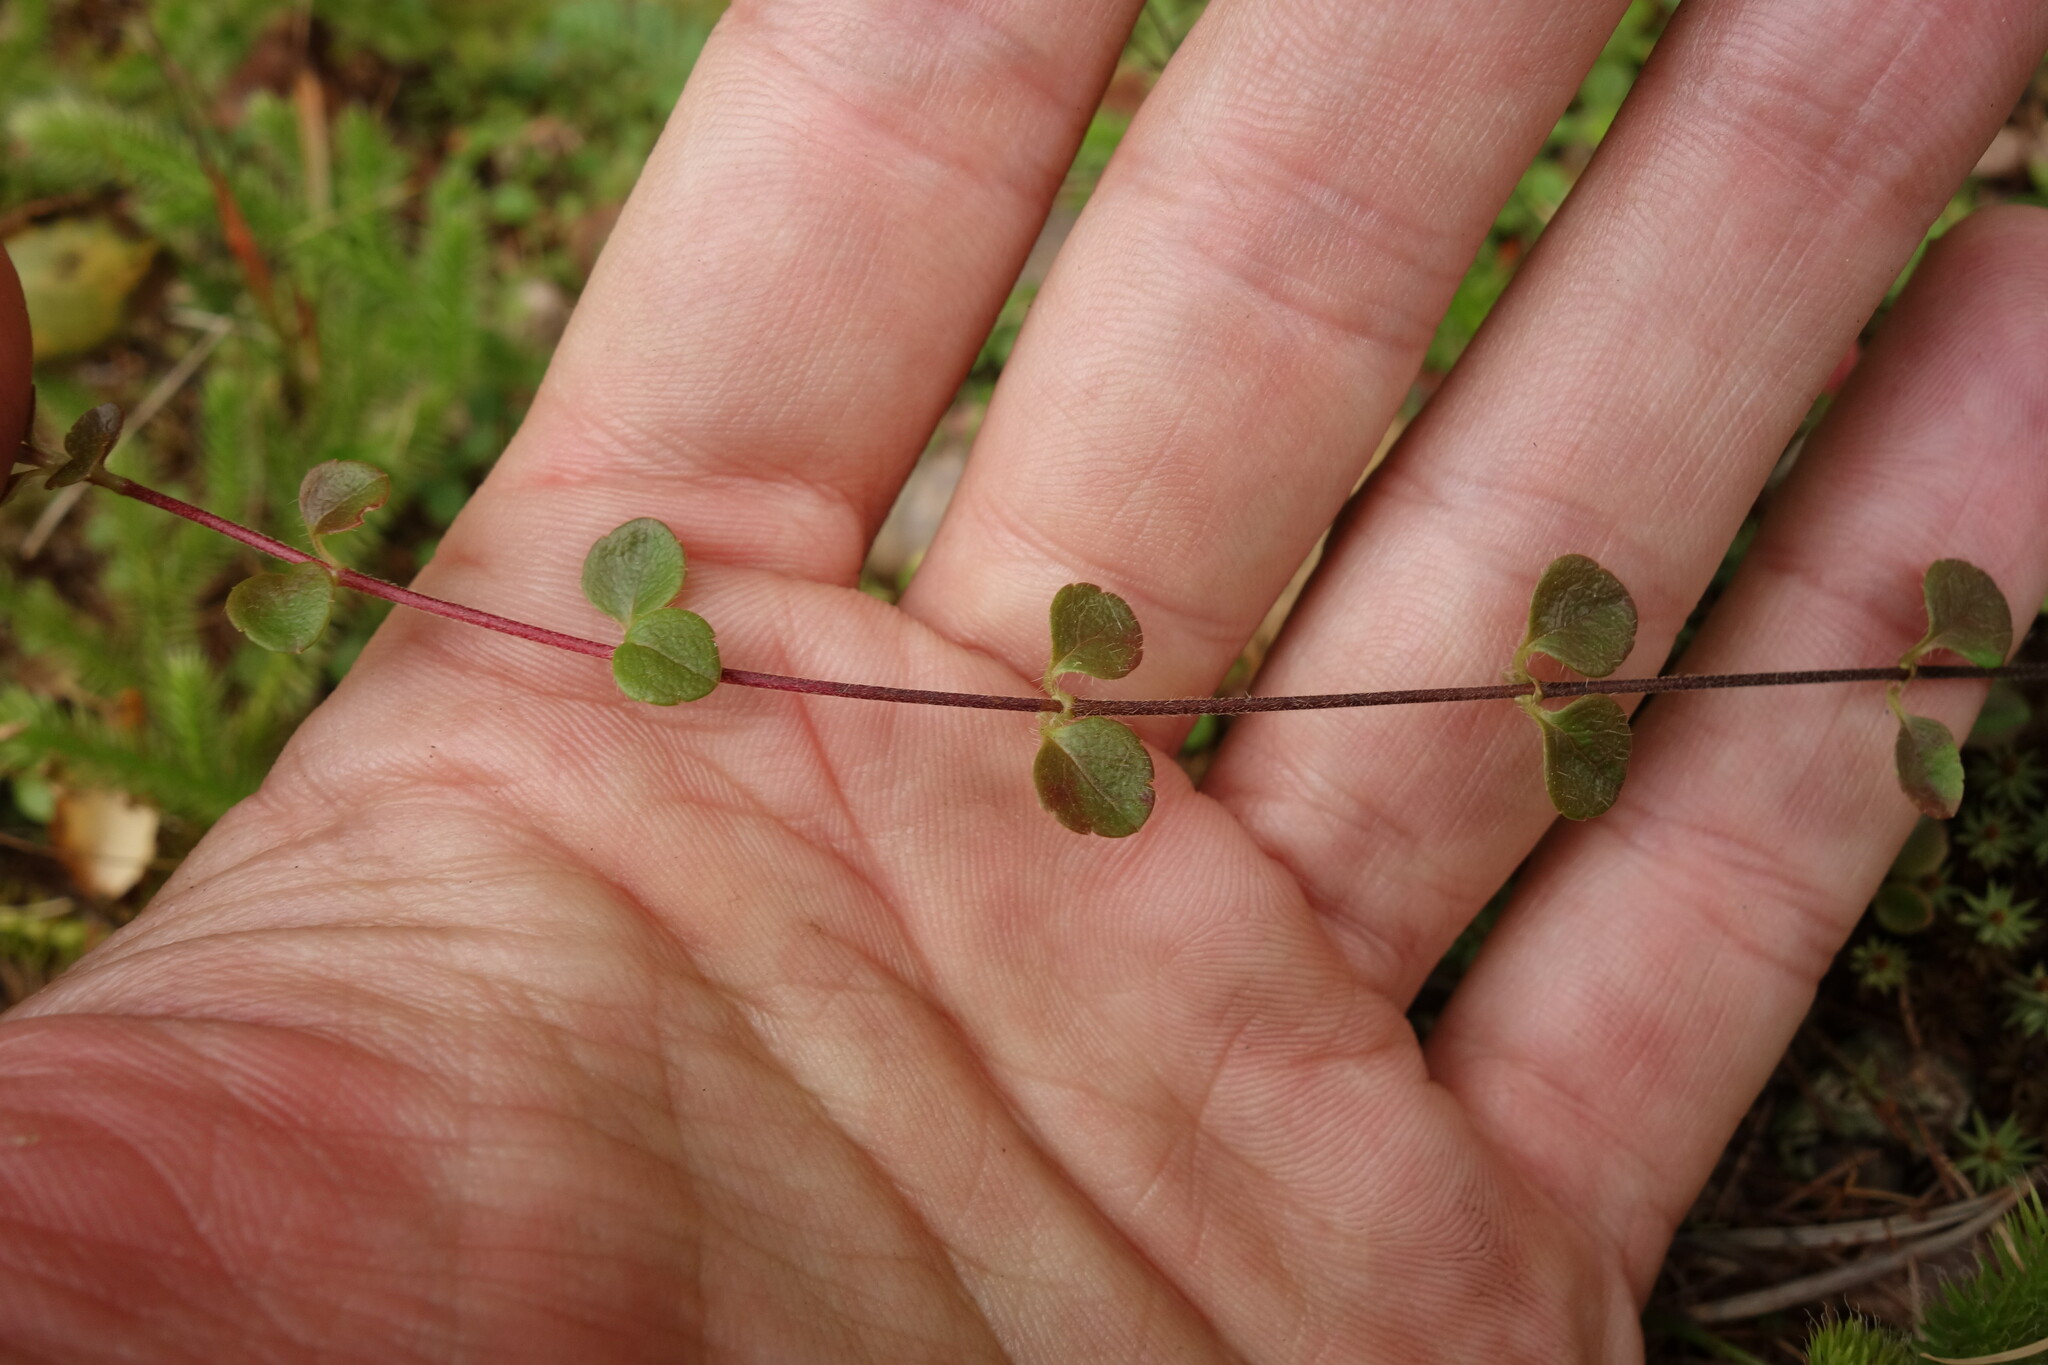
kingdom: Plantae
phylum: Tracheophyta
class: Magnoliopsida
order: Dipsacales
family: Caprifoliaceae
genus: Linnaea
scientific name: Linnaea borealis
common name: Twinflower
